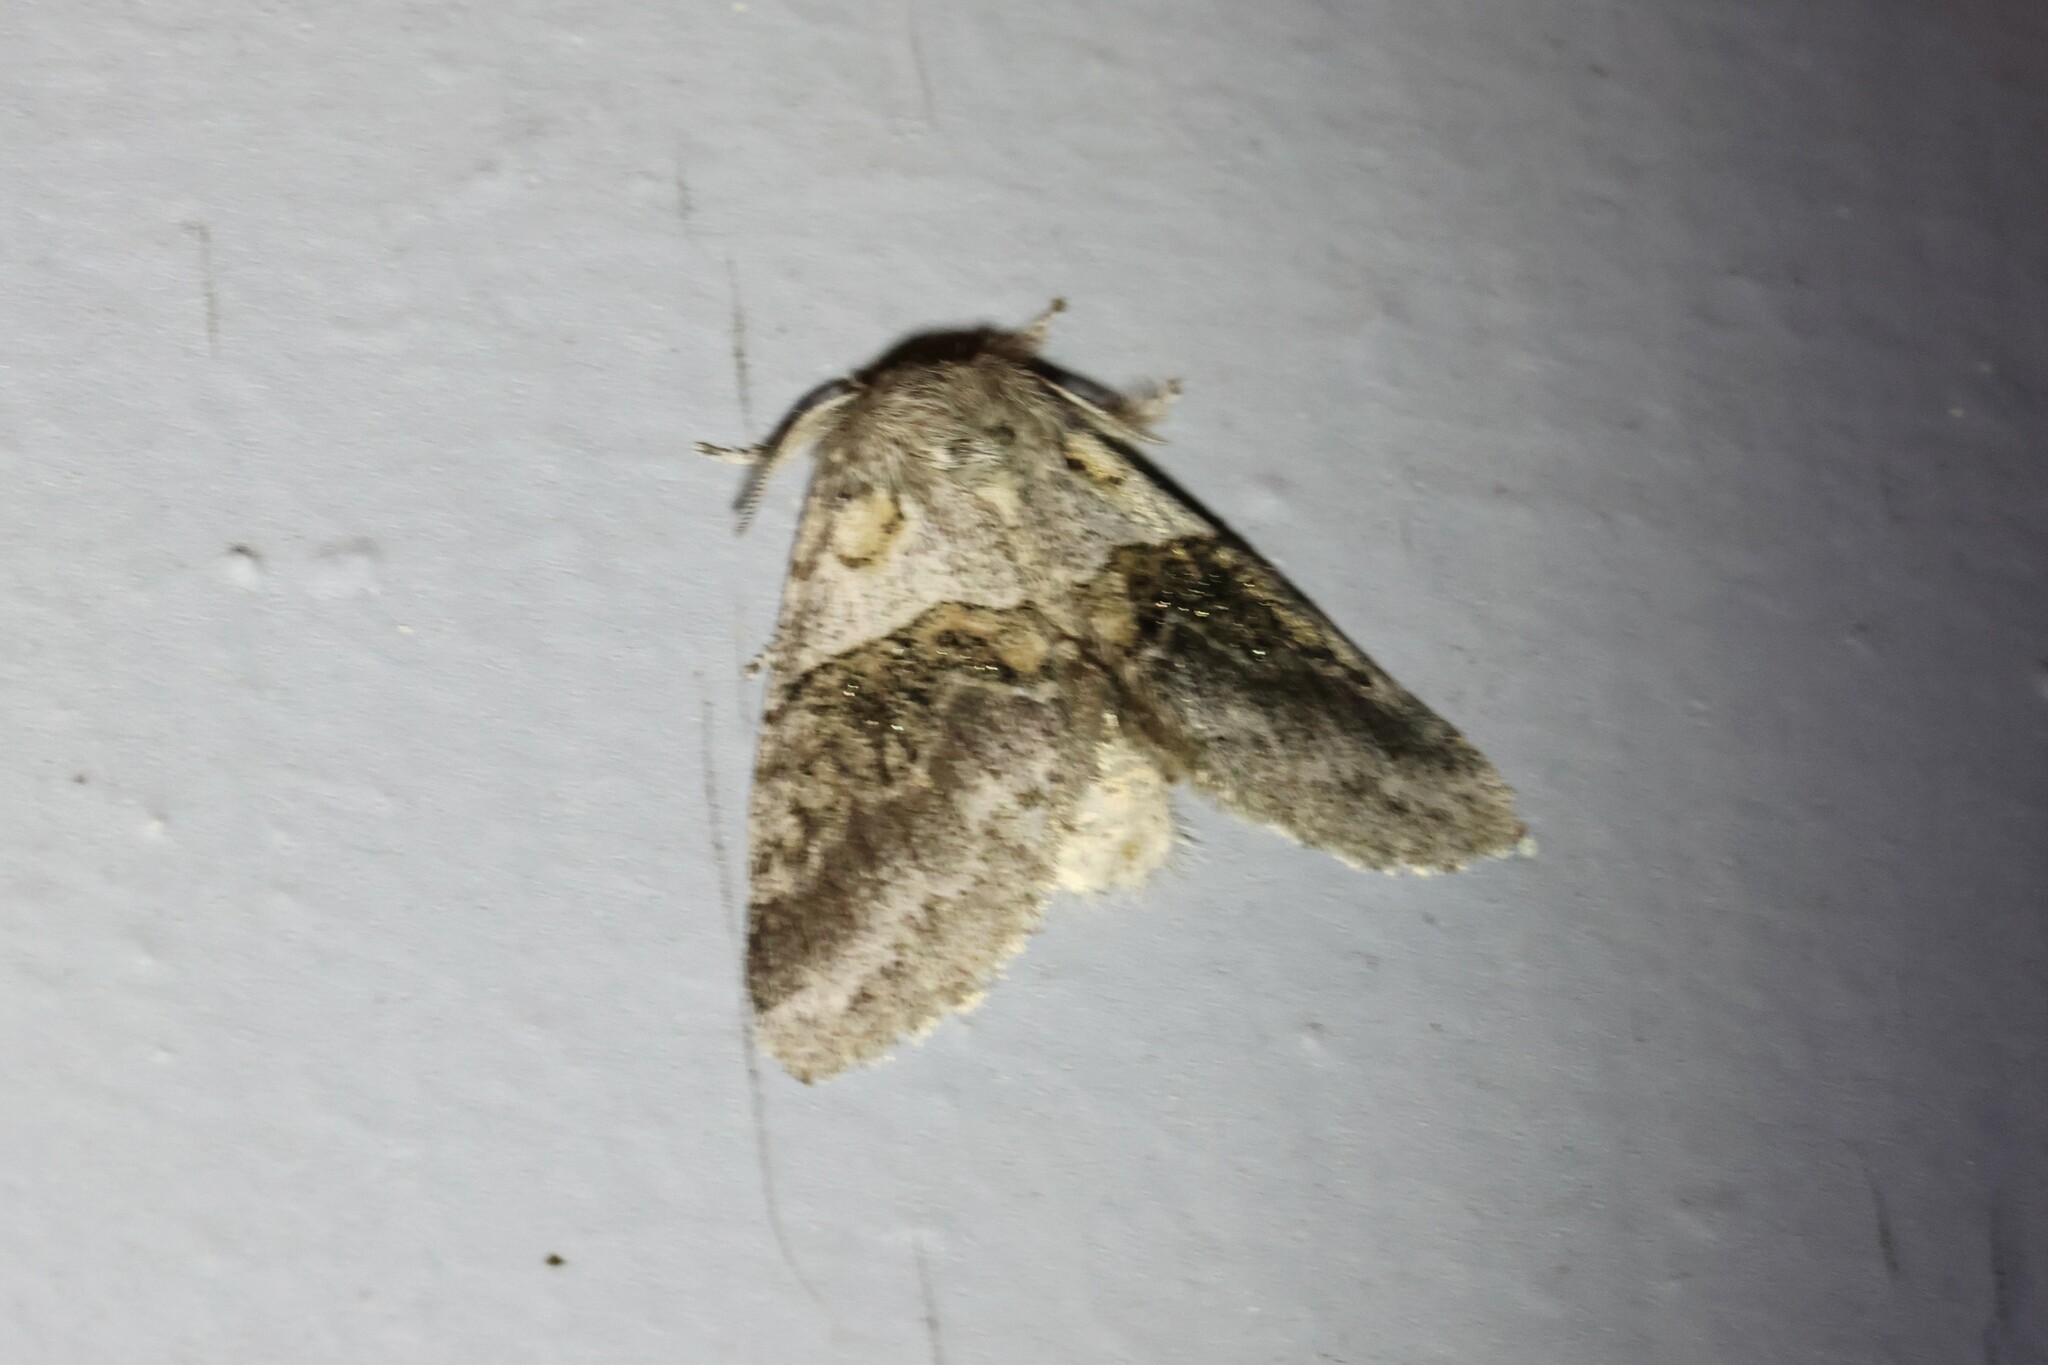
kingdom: Animalia
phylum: Arthropoda
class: Insecta
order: Lepidoptera
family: Notodontidae
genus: Gluphisia
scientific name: Gluphisia septentrionis
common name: Common gluphisia
